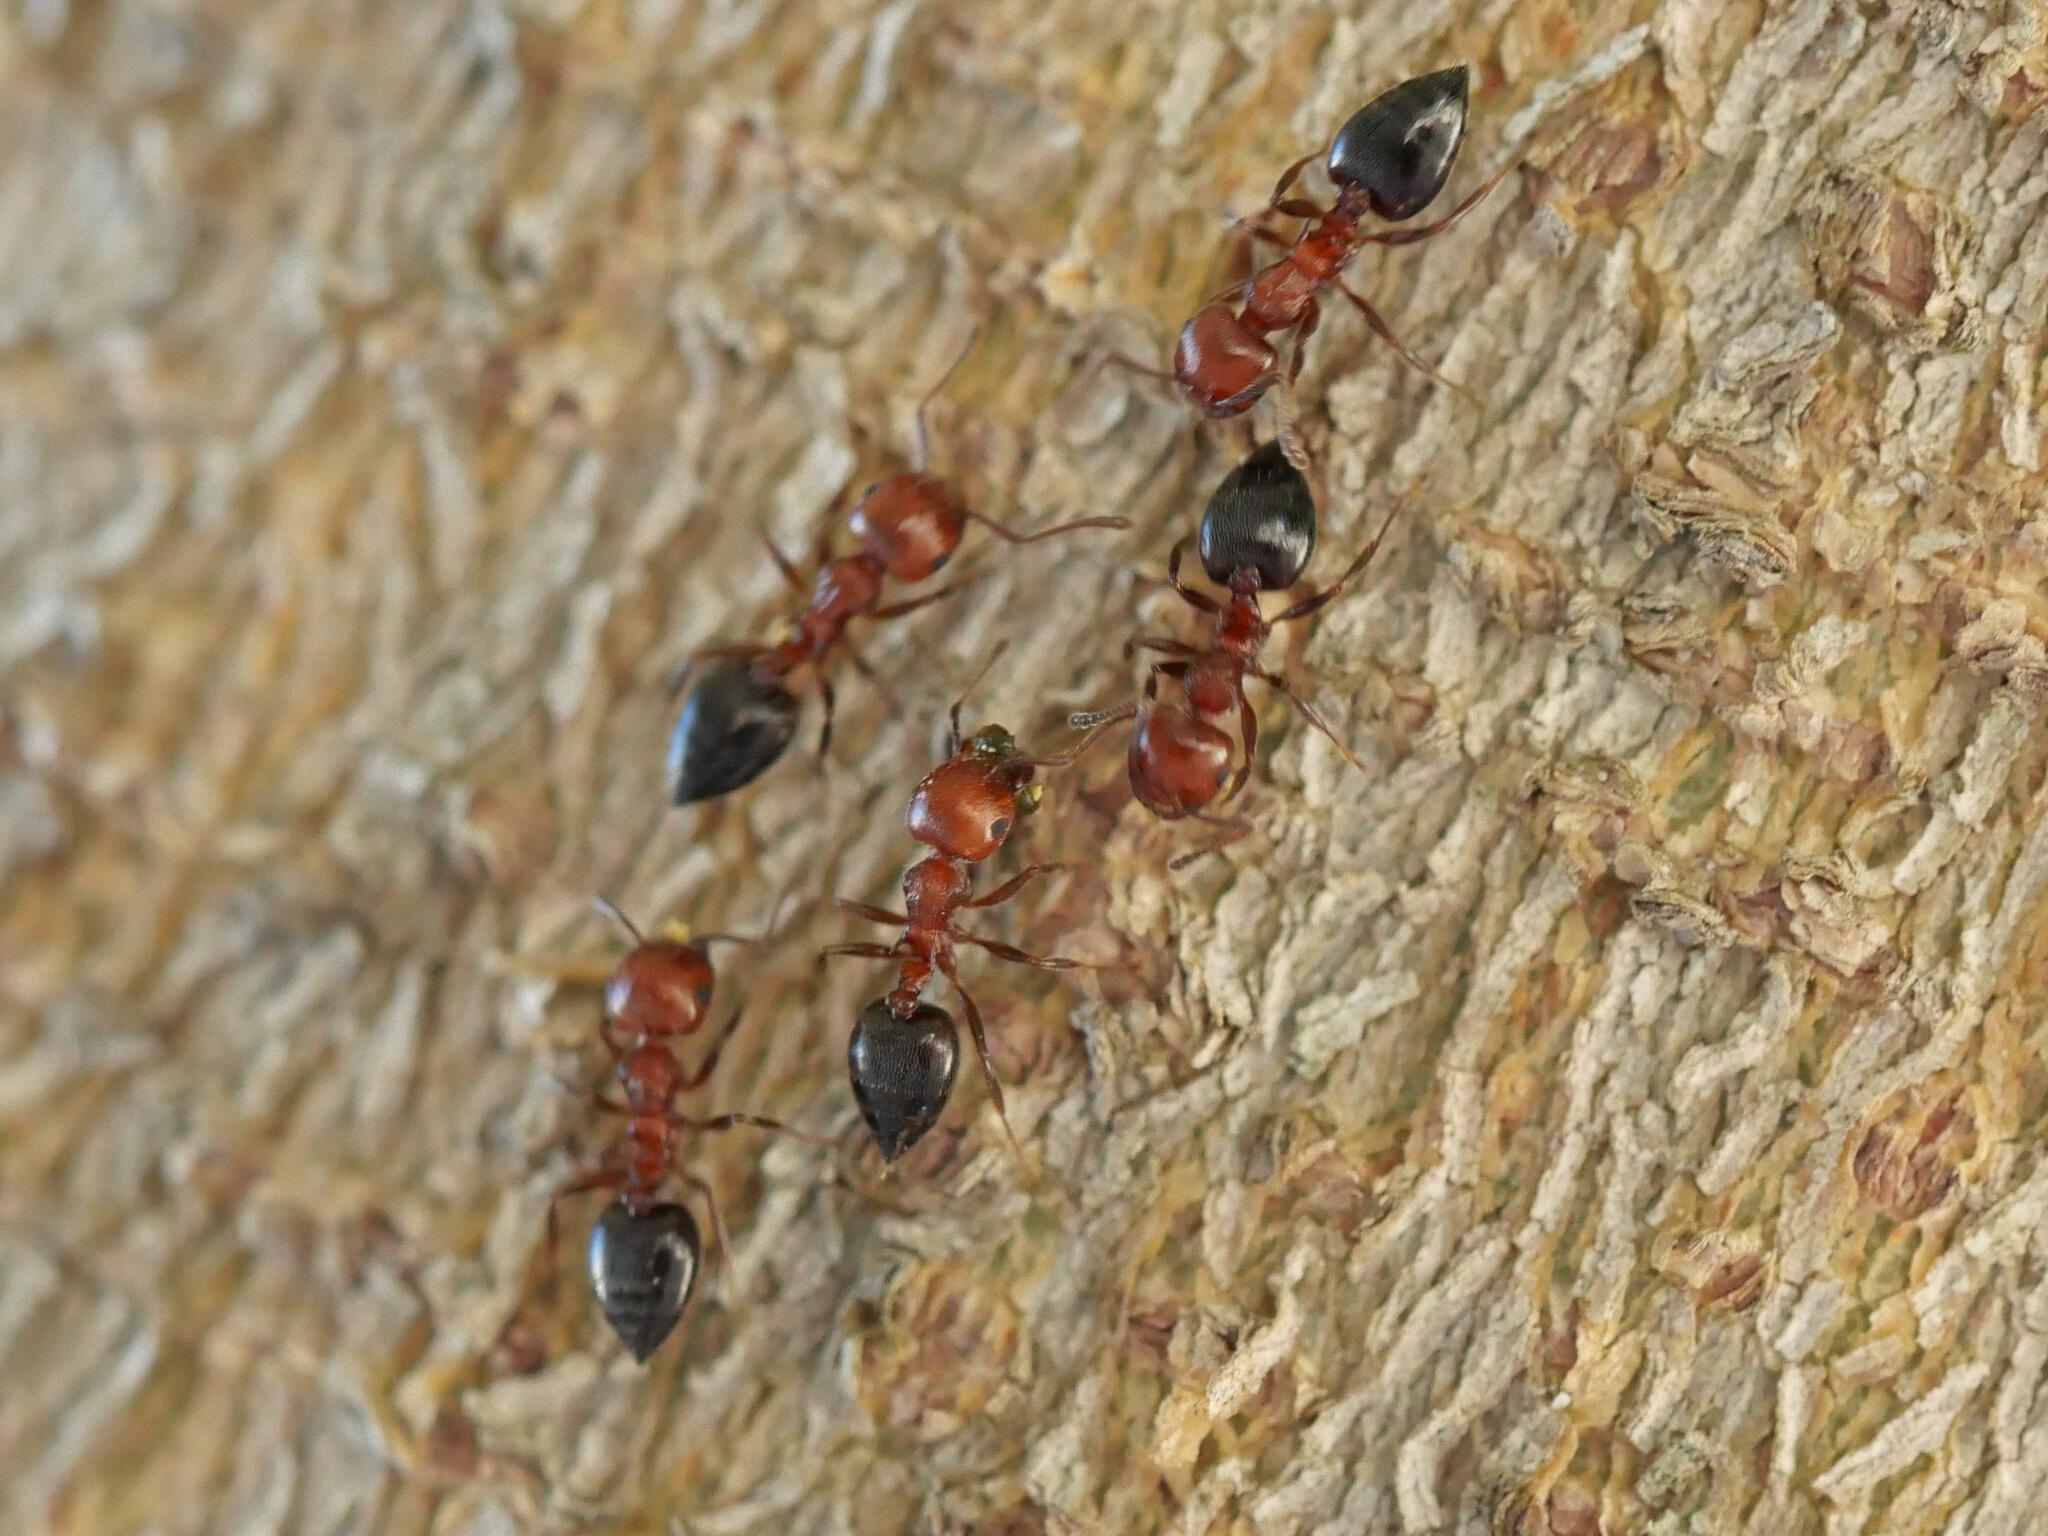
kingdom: Animalia
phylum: Arthropoda
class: Insecta
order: Hymenoptera
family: Formicidae
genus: Crematogaster
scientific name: Crematogaster schmidti
